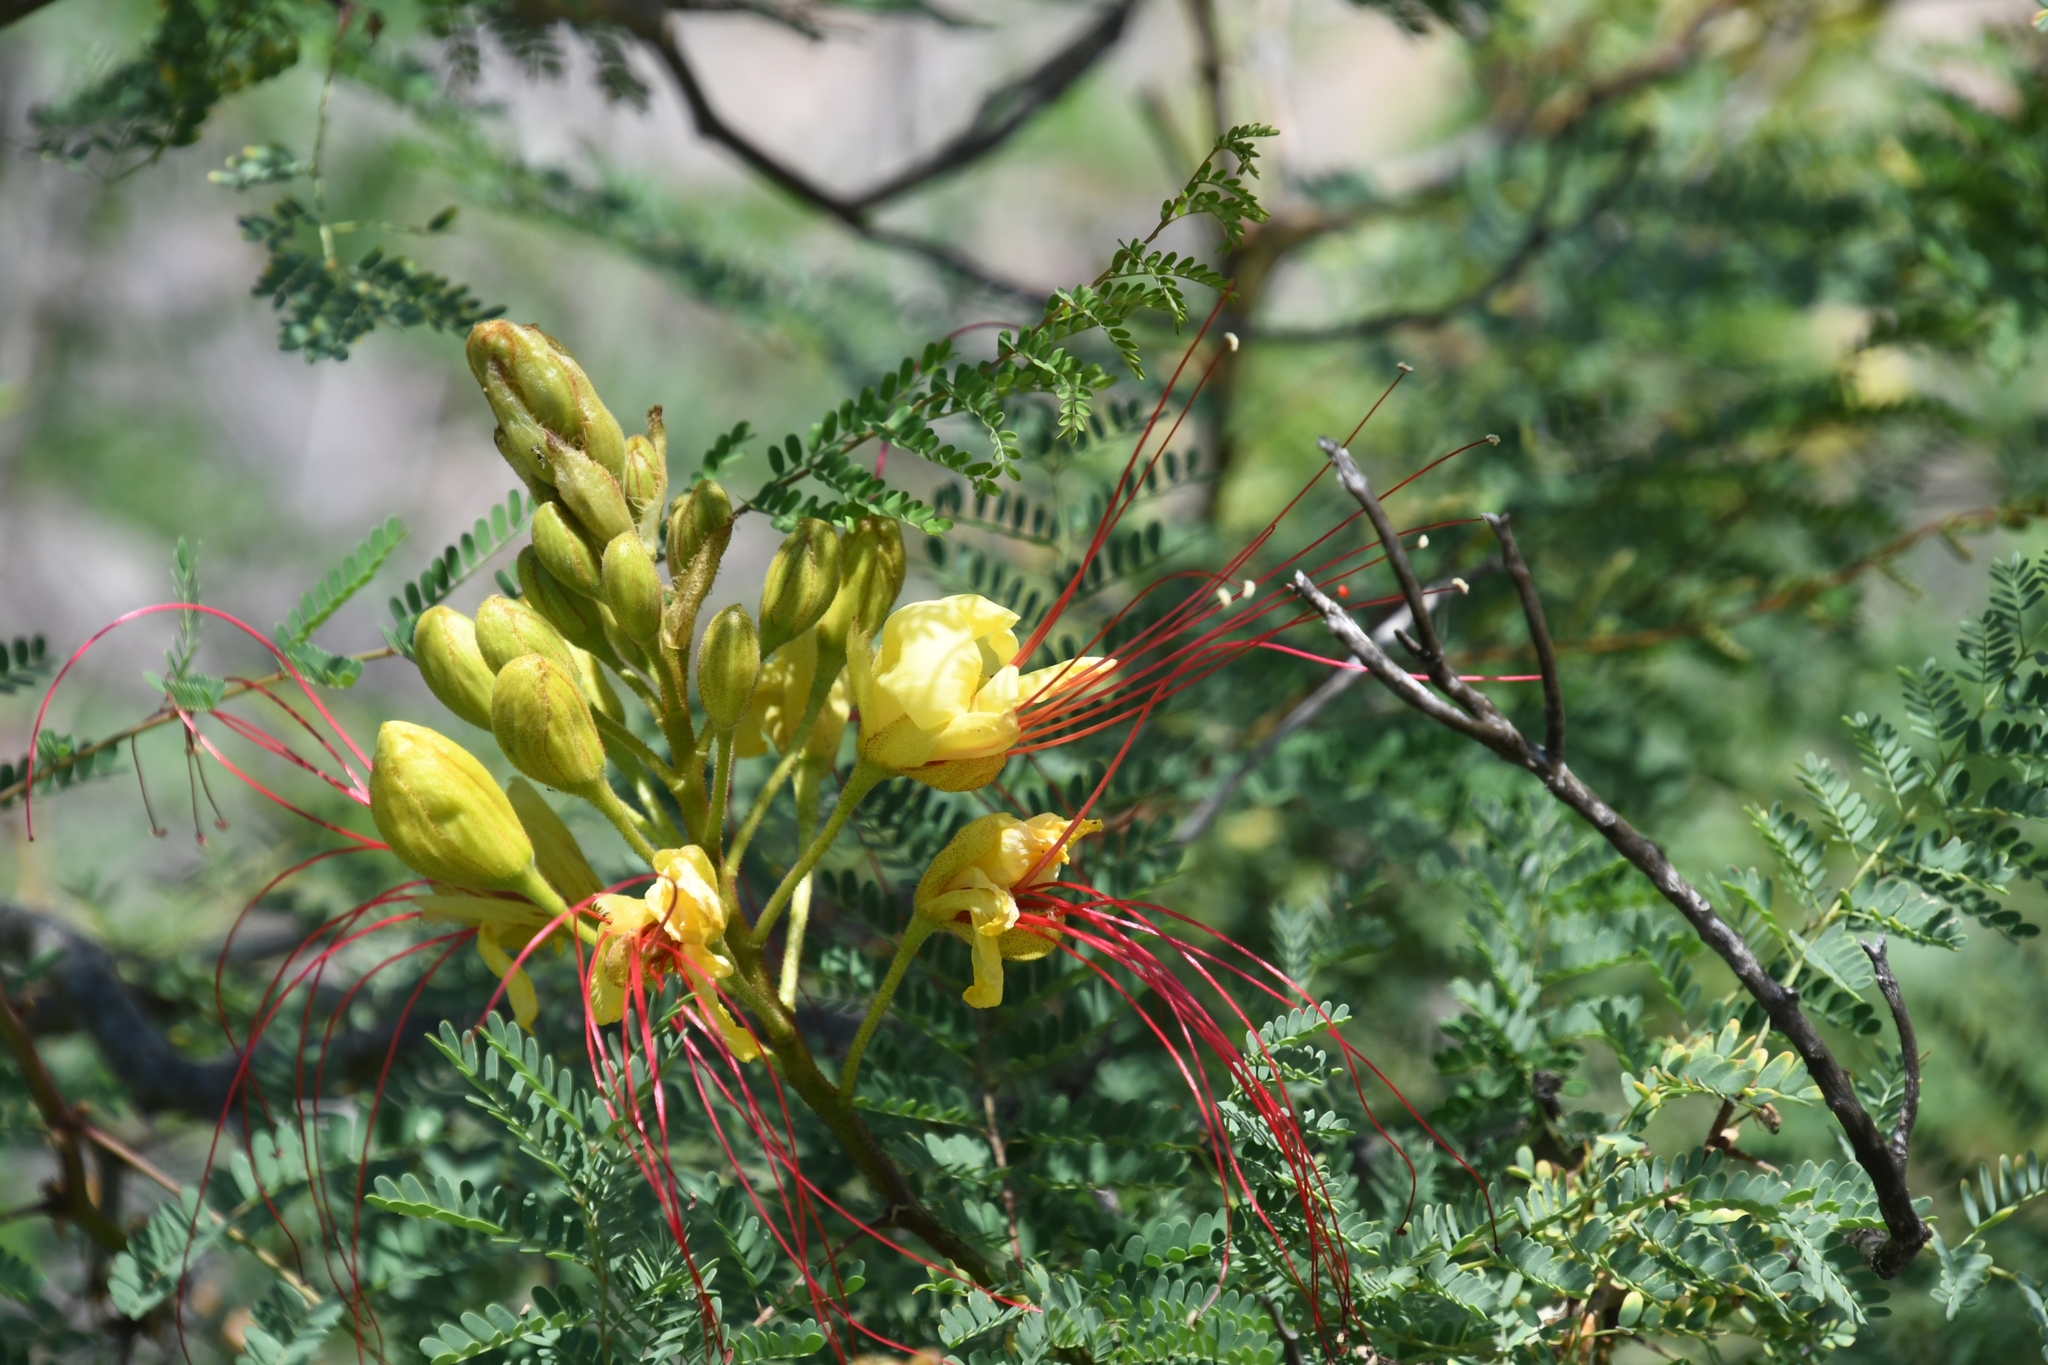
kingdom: Plantae
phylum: Tracheophyta
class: Magnoliopsida
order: Fabales
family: Fabaceae
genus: Erythrostemon
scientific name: Erythrostemon gilliesii
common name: Bird-of-paradise shrub
